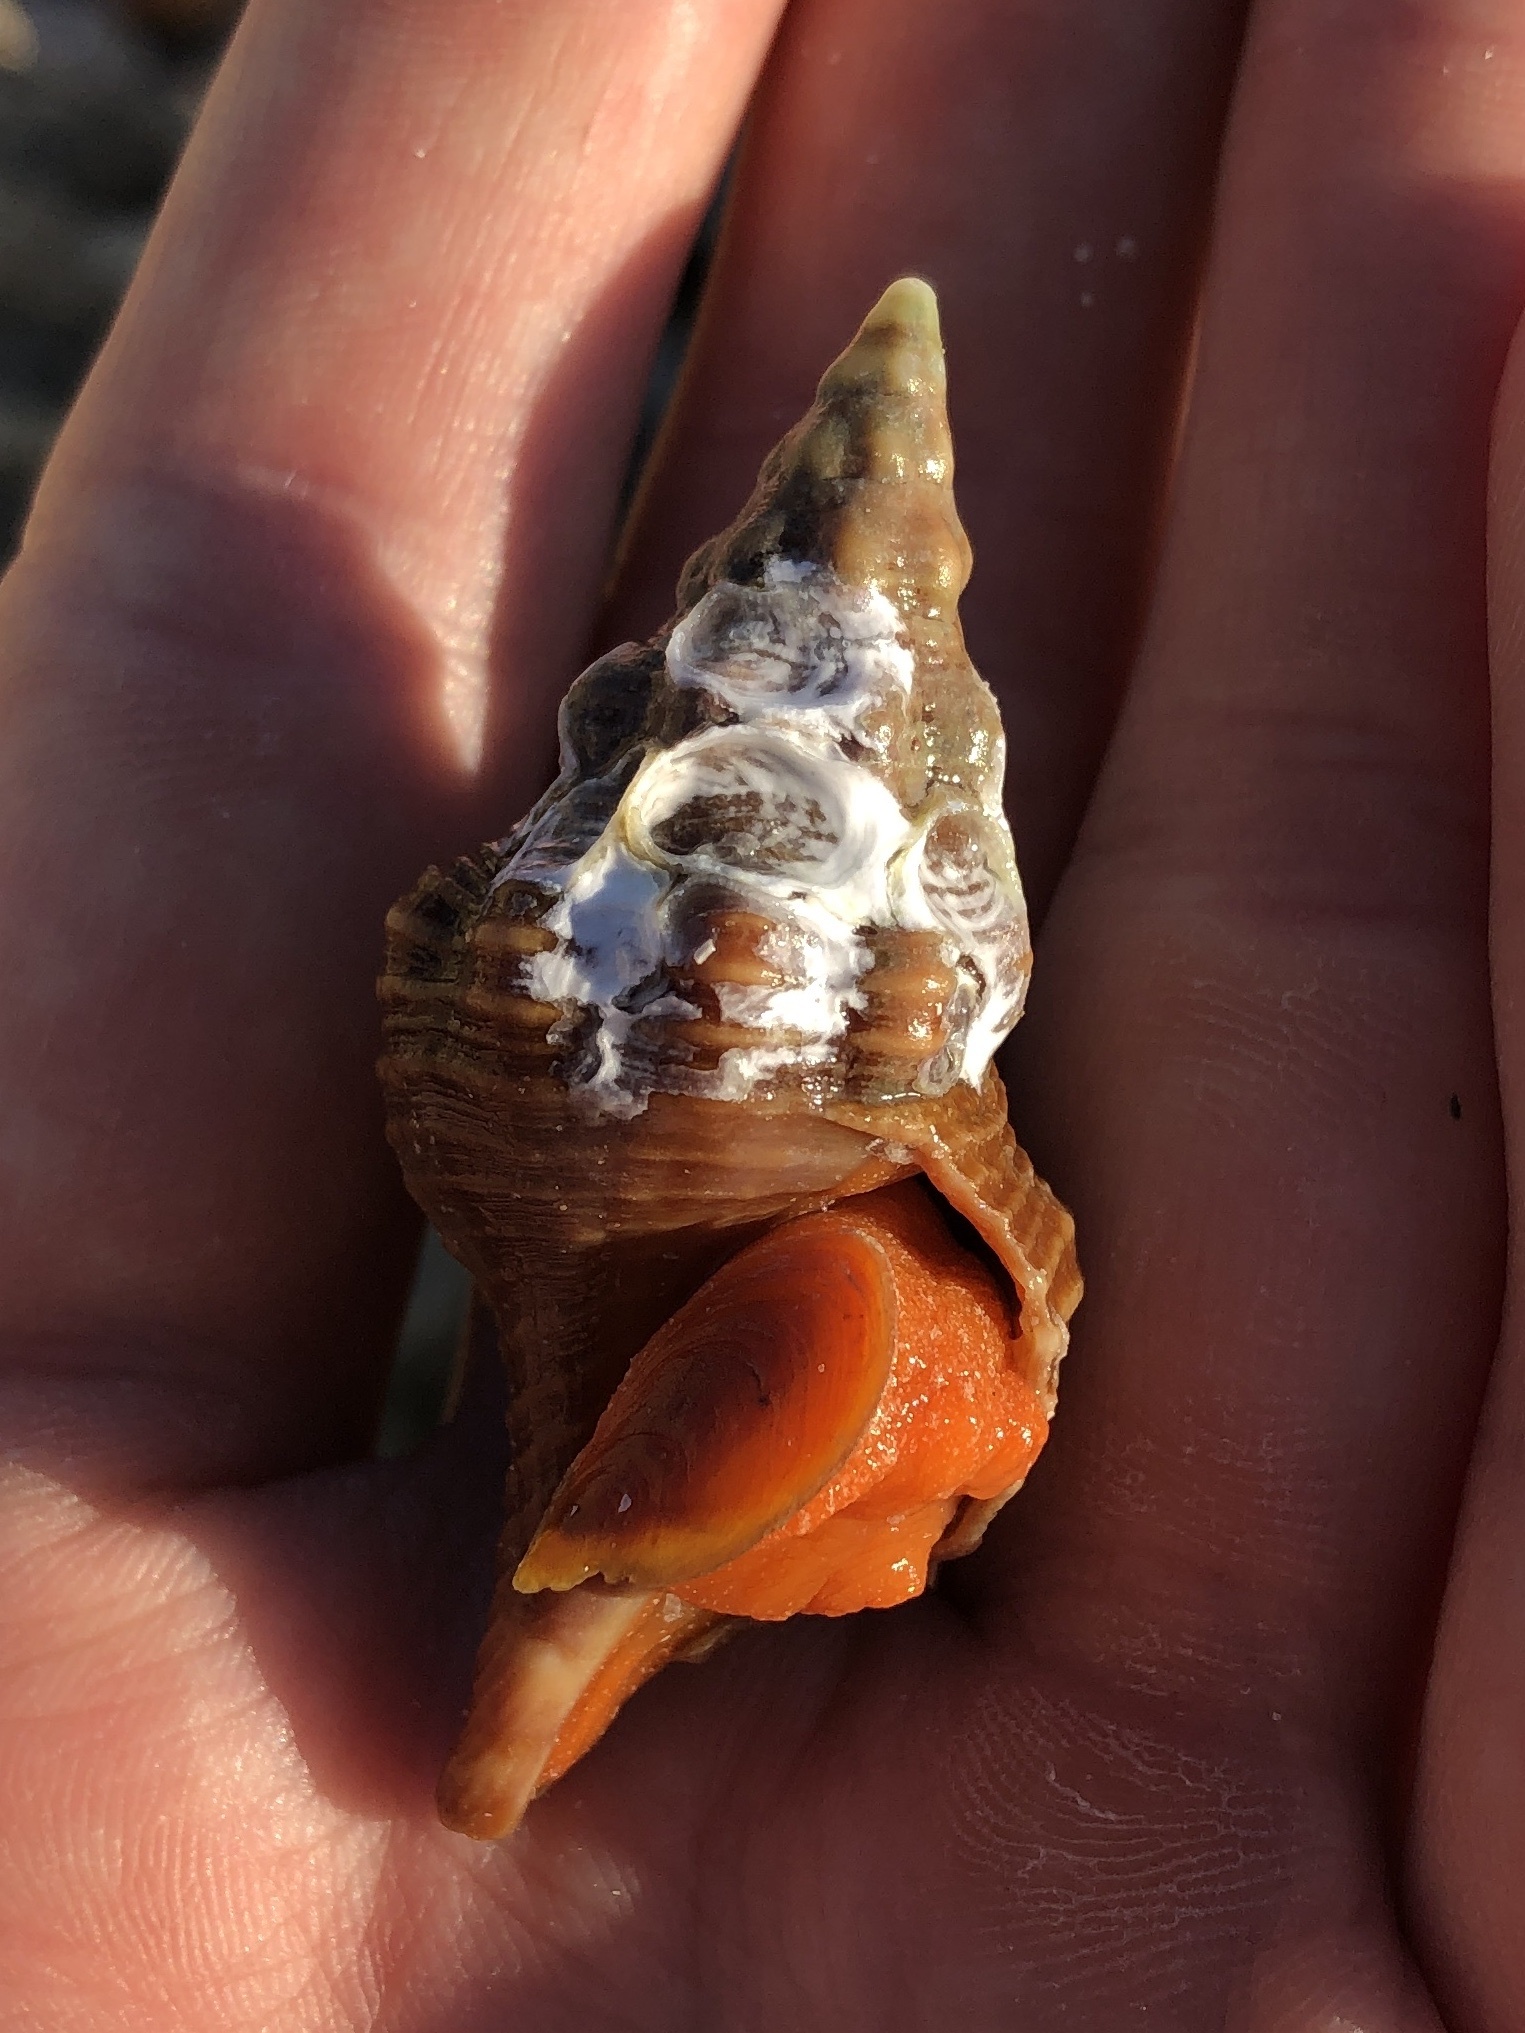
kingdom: Animalia
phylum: Mollusca
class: Gastropoda
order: Neogastropoda
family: Fasciolariidae
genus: Triplofusus
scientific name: Triplofusus giganteus
